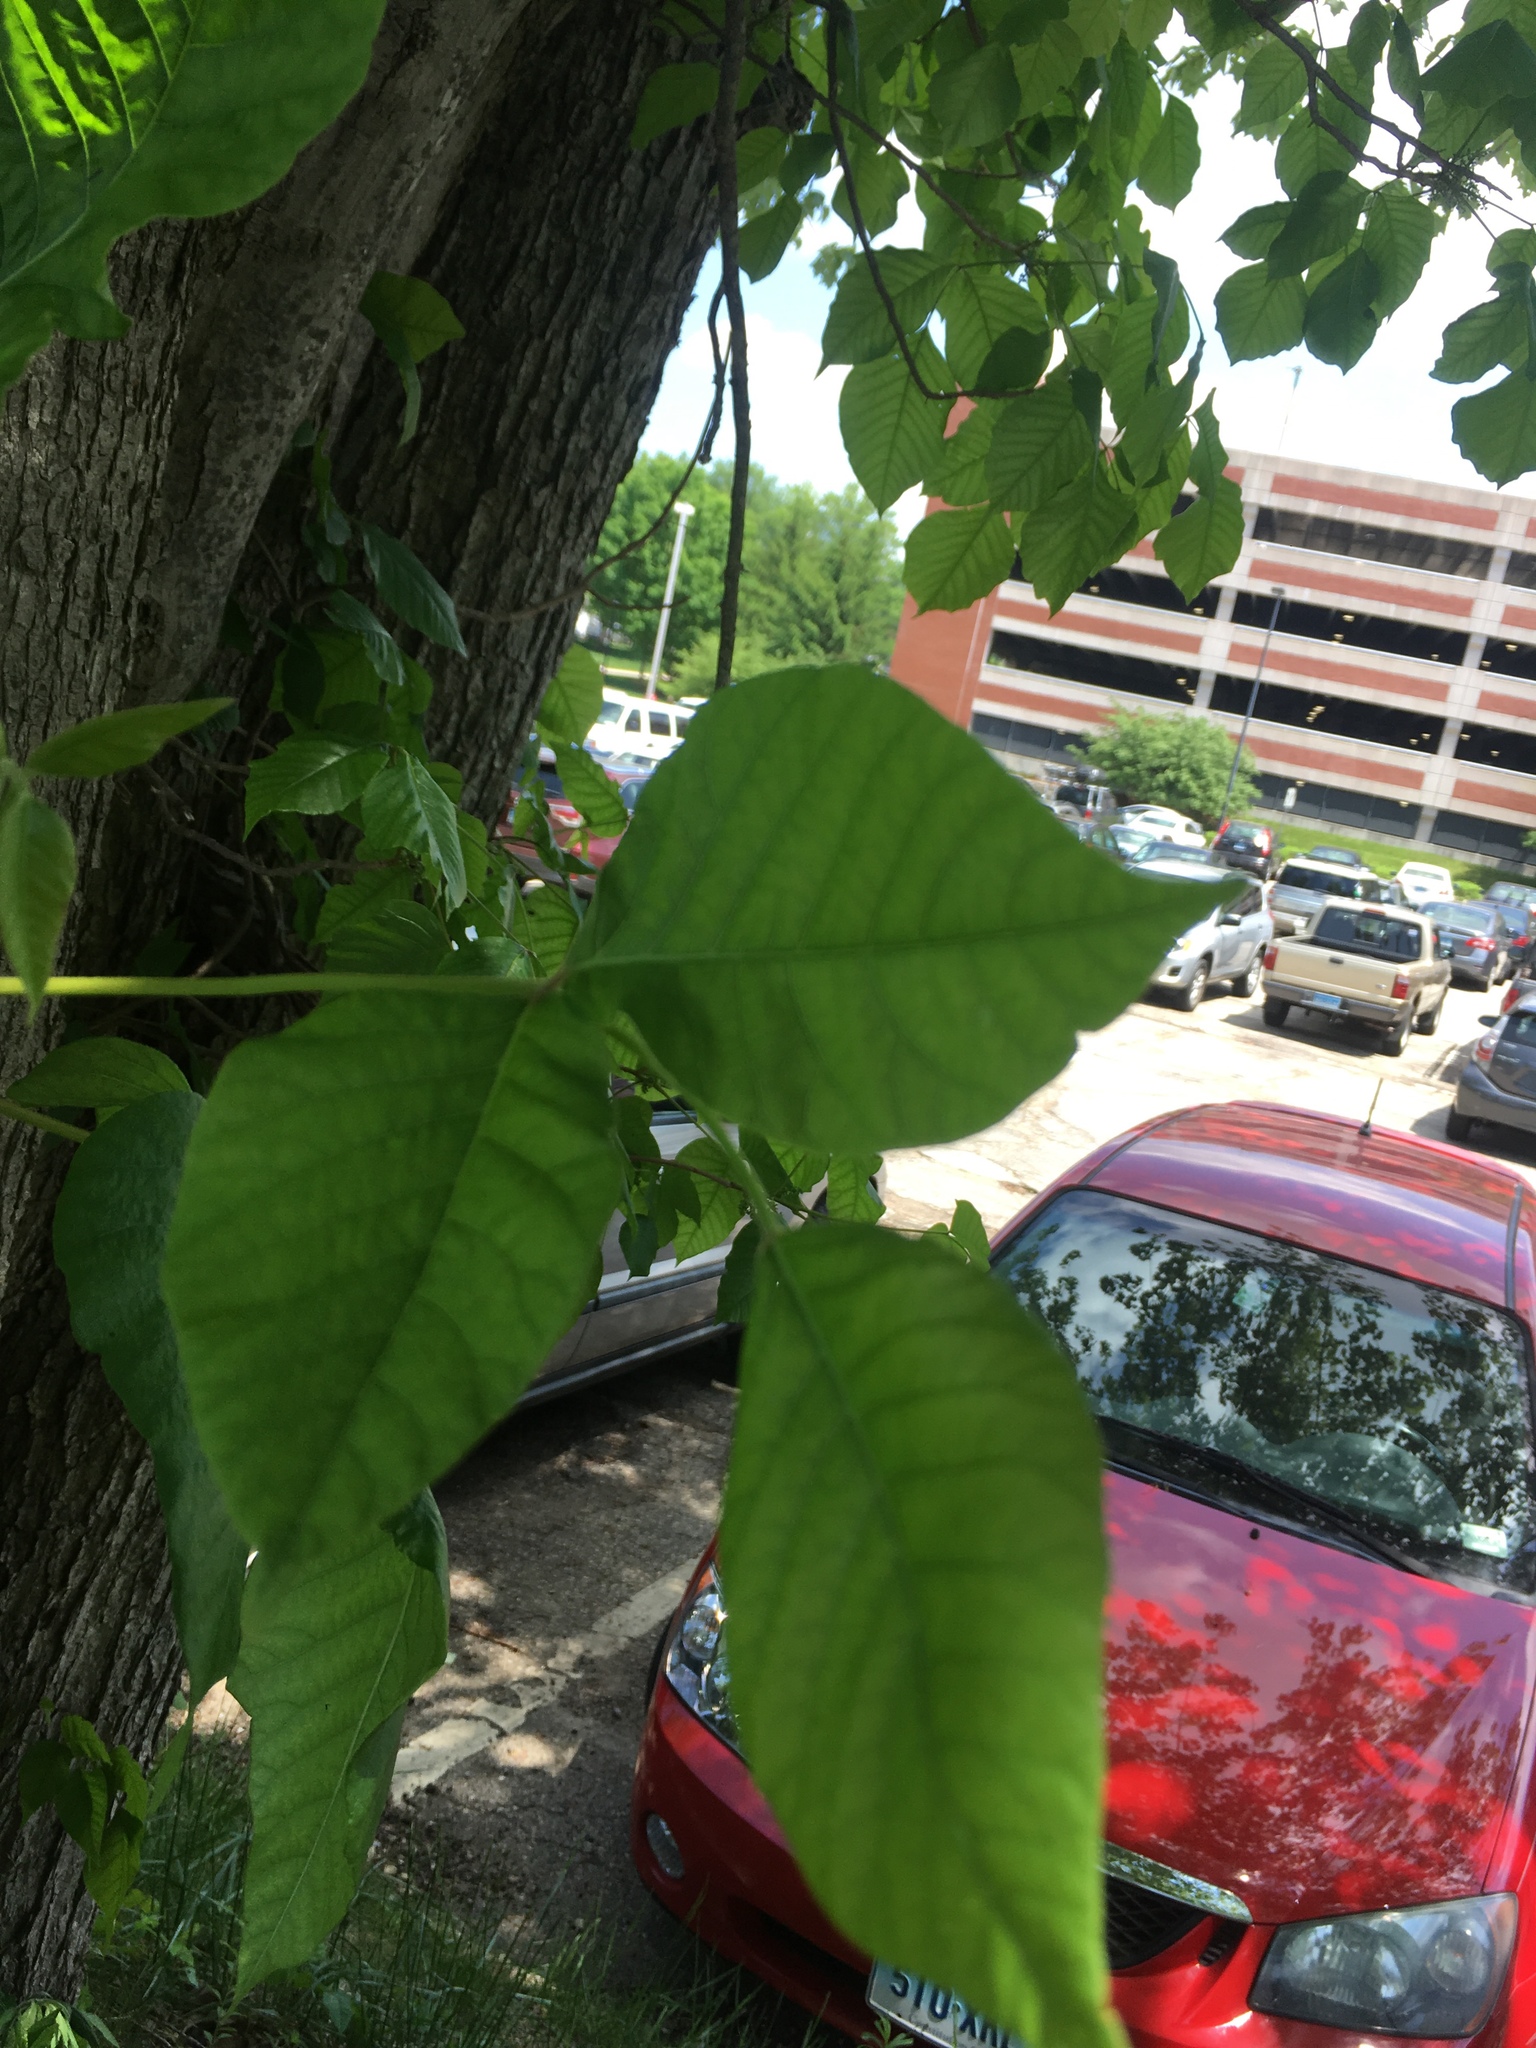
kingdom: Plantae
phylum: Tracheophyta
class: Magnoliopsida
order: Sapindales
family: Anacardiaceae
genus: Toxicodendron
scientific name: Toxicodendron radicans
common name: Poison ivy
